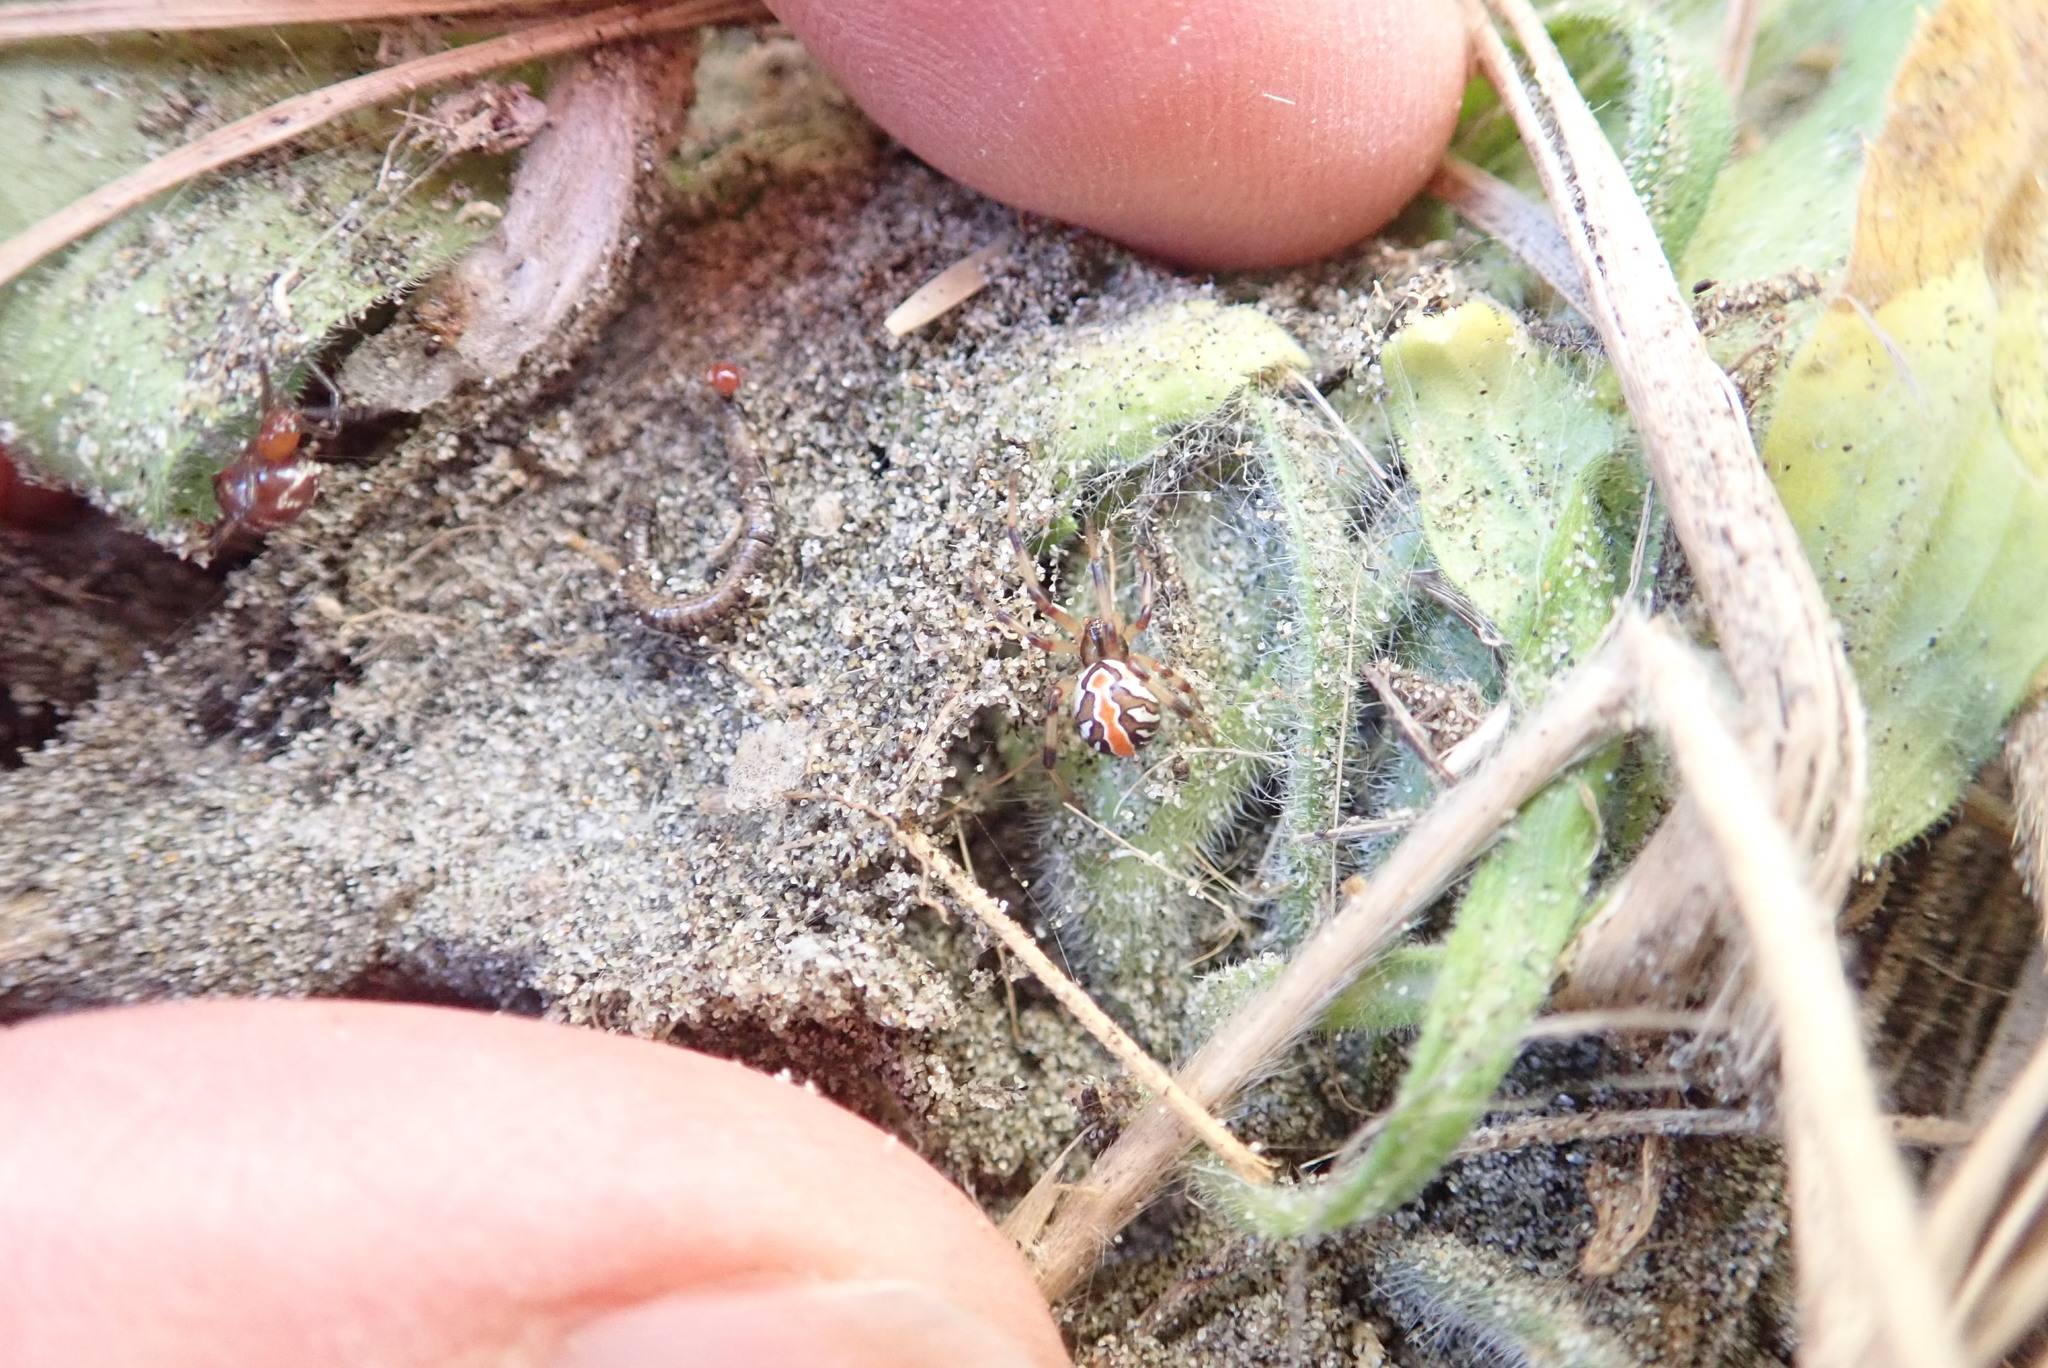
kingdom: Animalia
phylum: Arthropoda
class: Arachnida
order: Araneae
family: Theridiidae
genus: Latrodectus
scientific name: Latrodectus katipo
